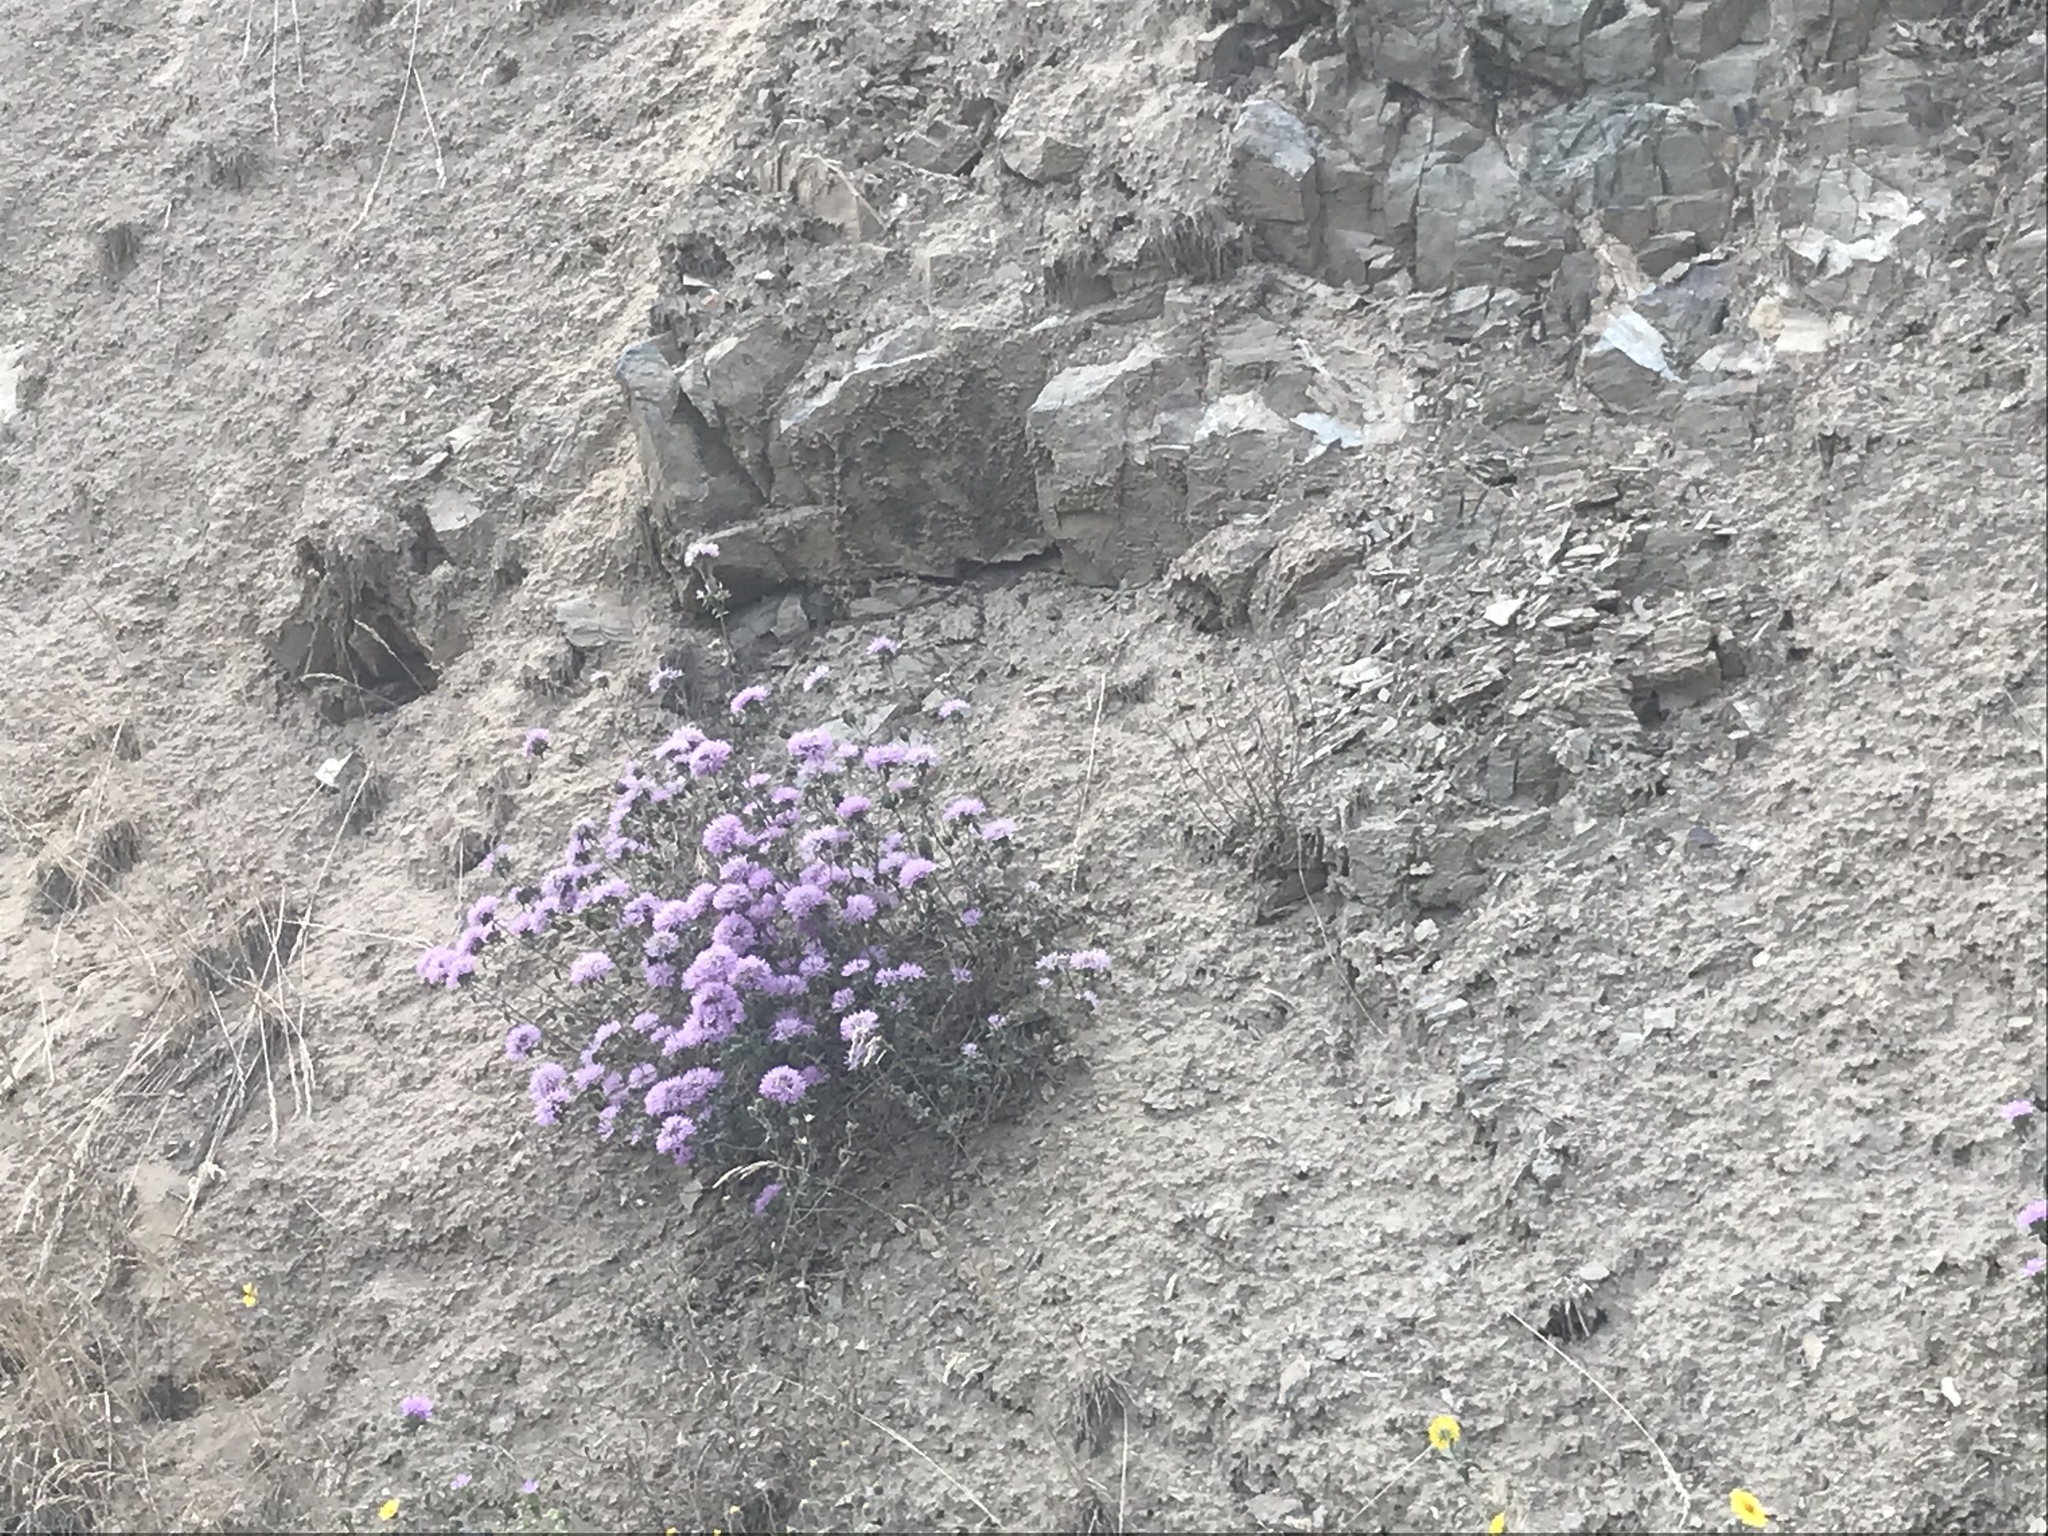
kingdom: Plantae
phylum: Tracheophyta
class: Magnoliopsida
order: Lamiales
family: Lamiaceae
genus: Monardella
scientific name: Monardella
